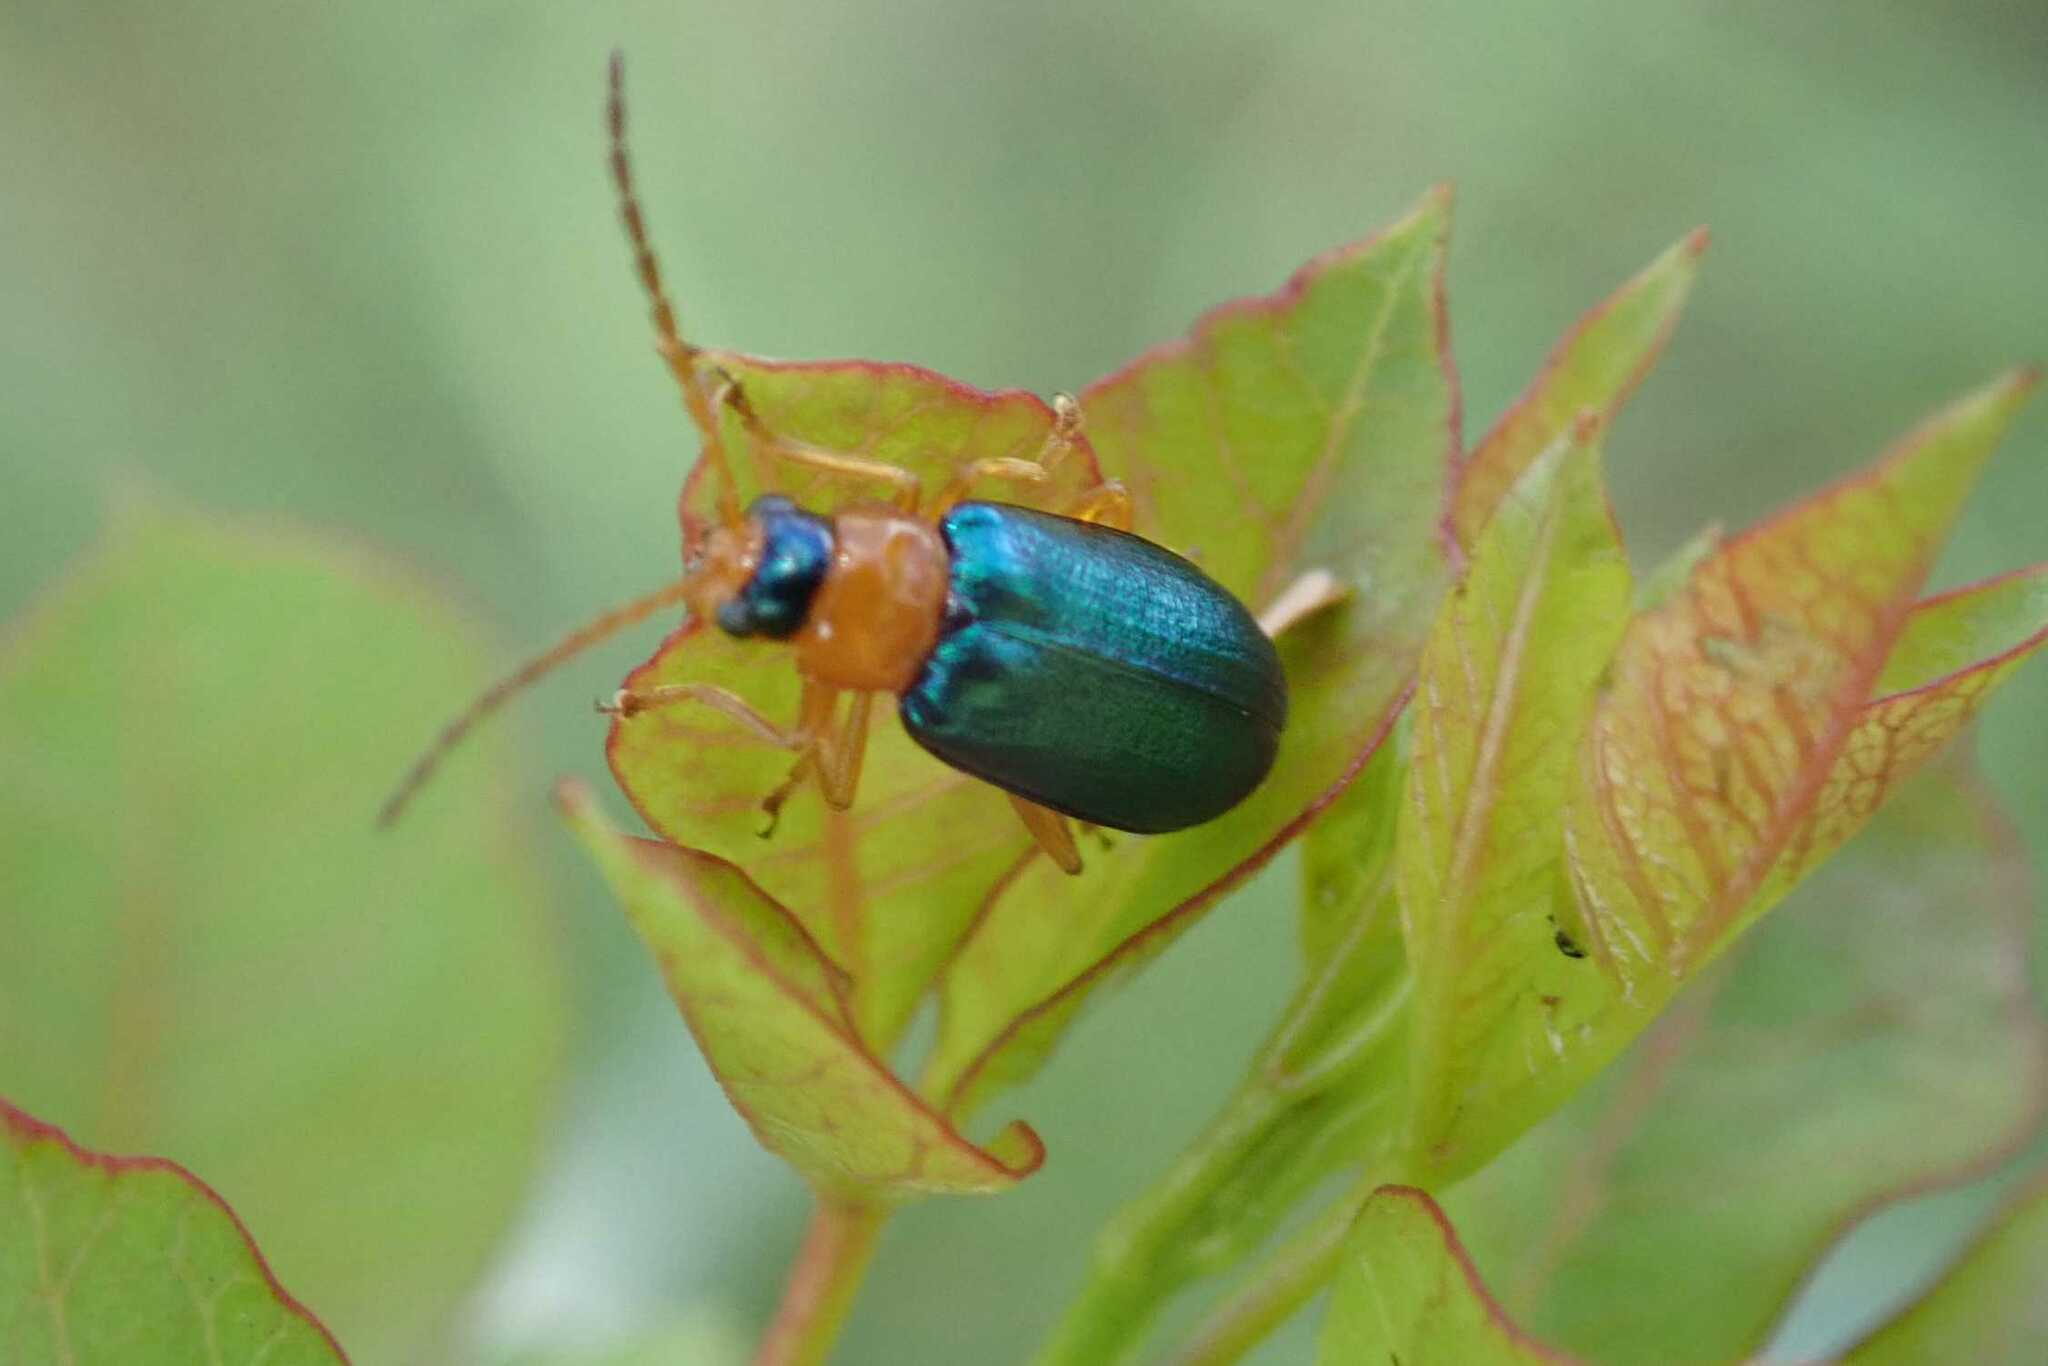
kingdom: Animalia
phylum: Arthropoda
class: Insecta
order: Coleoptera
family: Chrysomelidae
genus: Spilocephalus
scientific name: Spilocephalus
